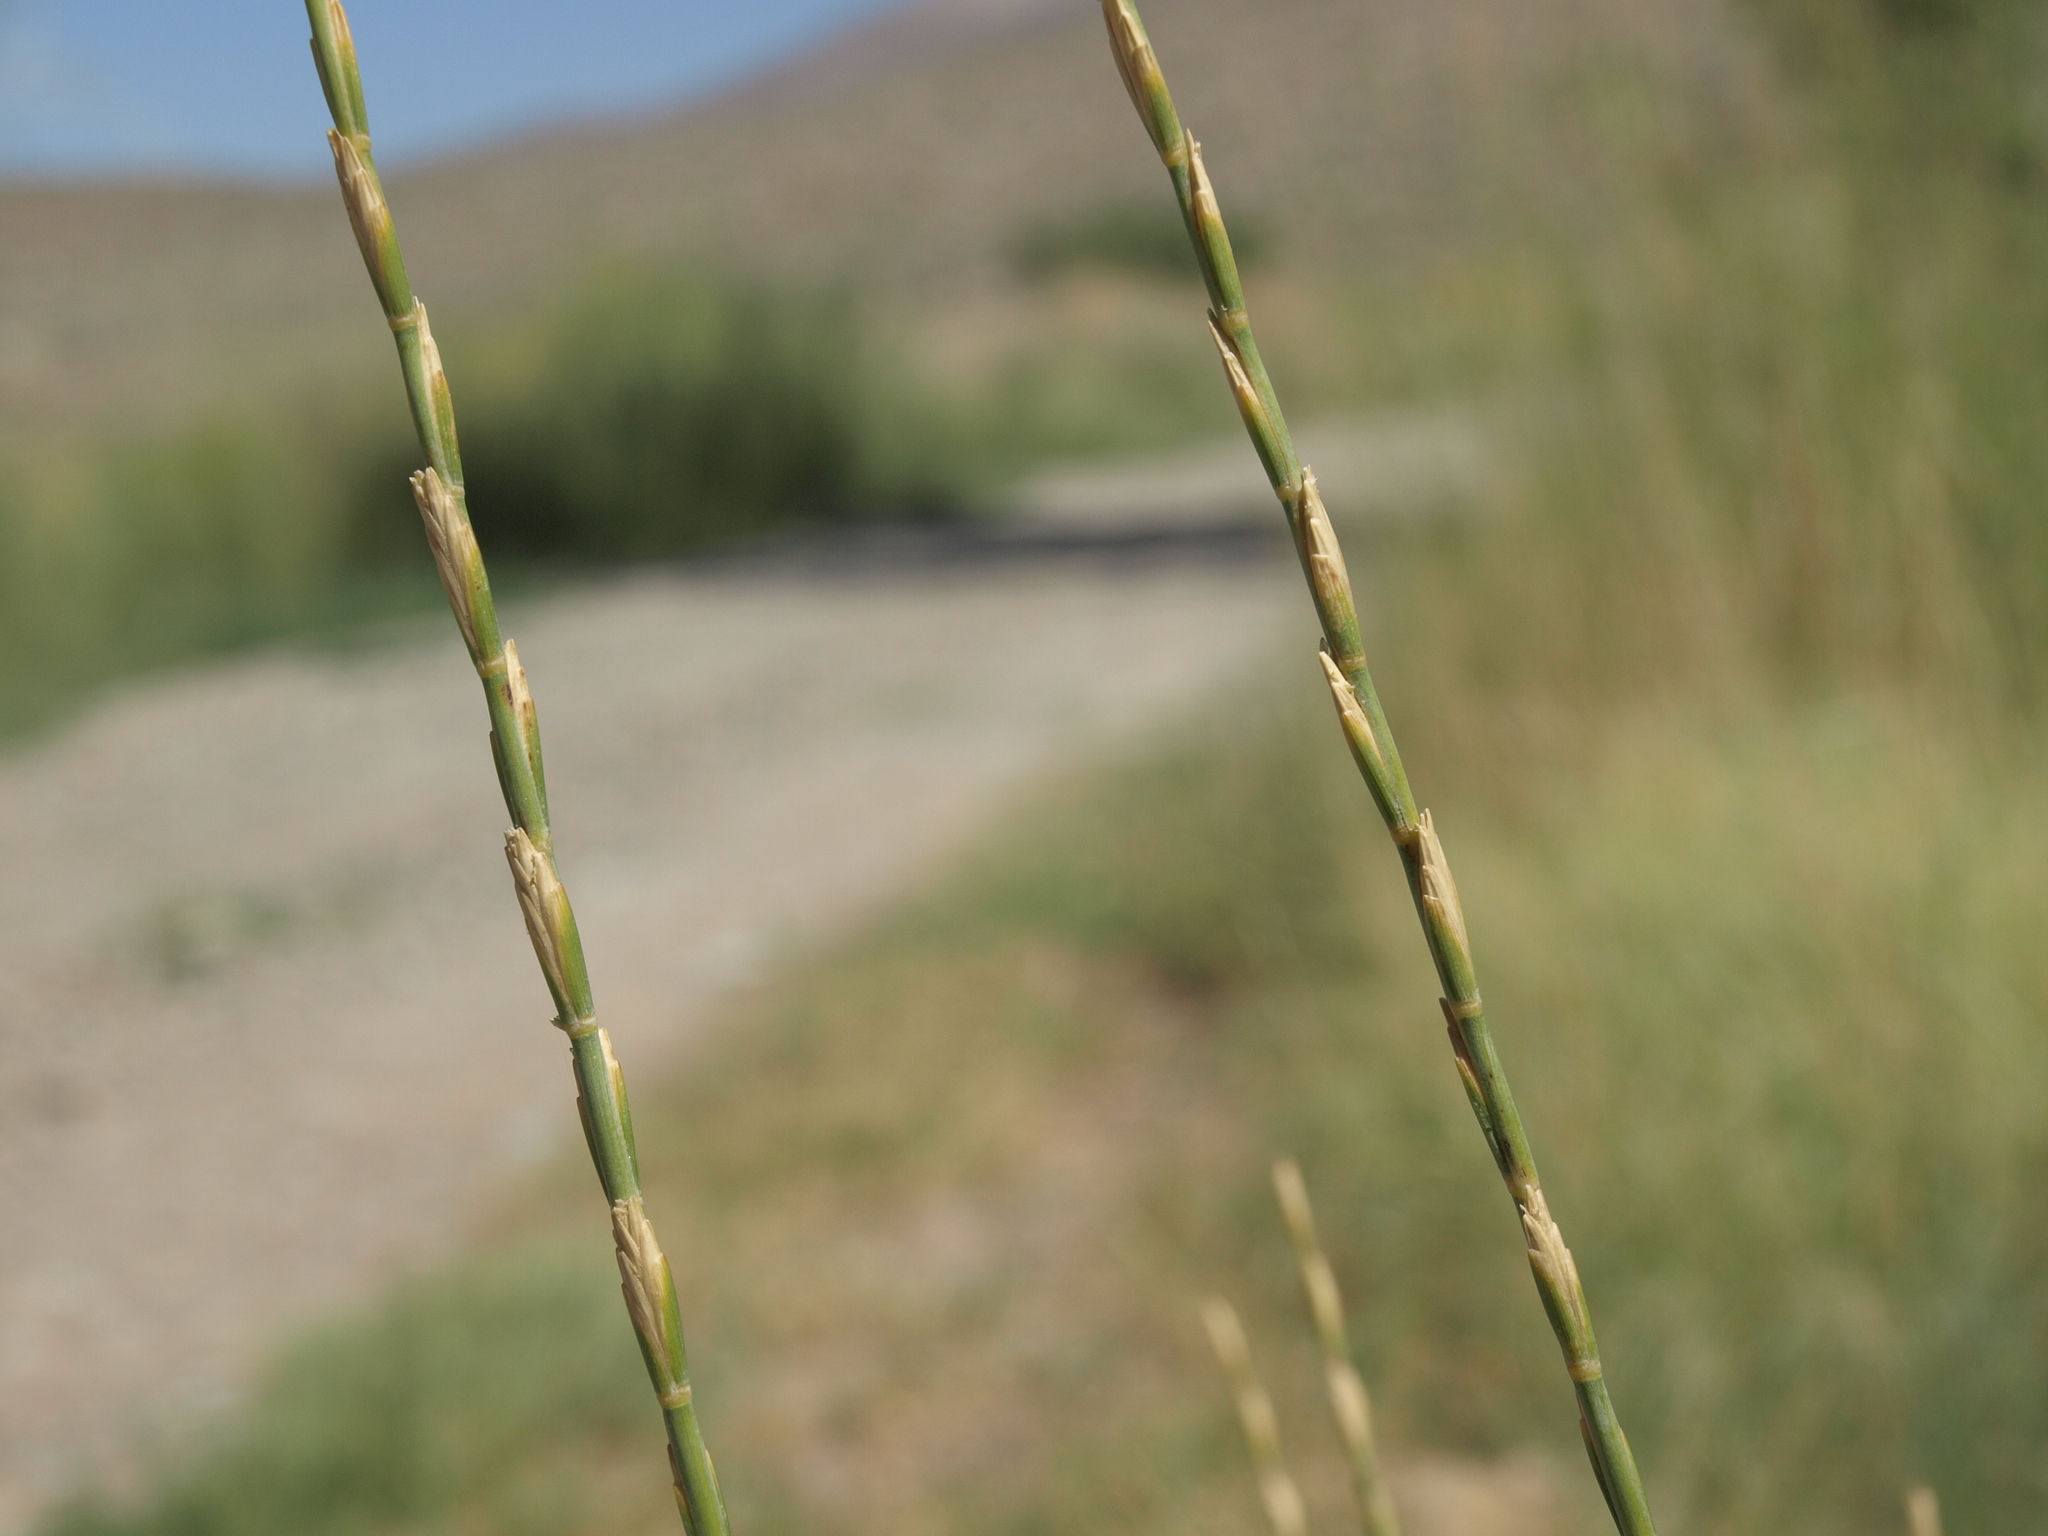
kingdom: Plantae
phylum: Tracheophyta
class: Liliopsida
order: Poales
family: Poaceae
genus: Thinopyrum
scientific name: Thinopyrum obtusiflorum
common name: Eurasian quackgrass
